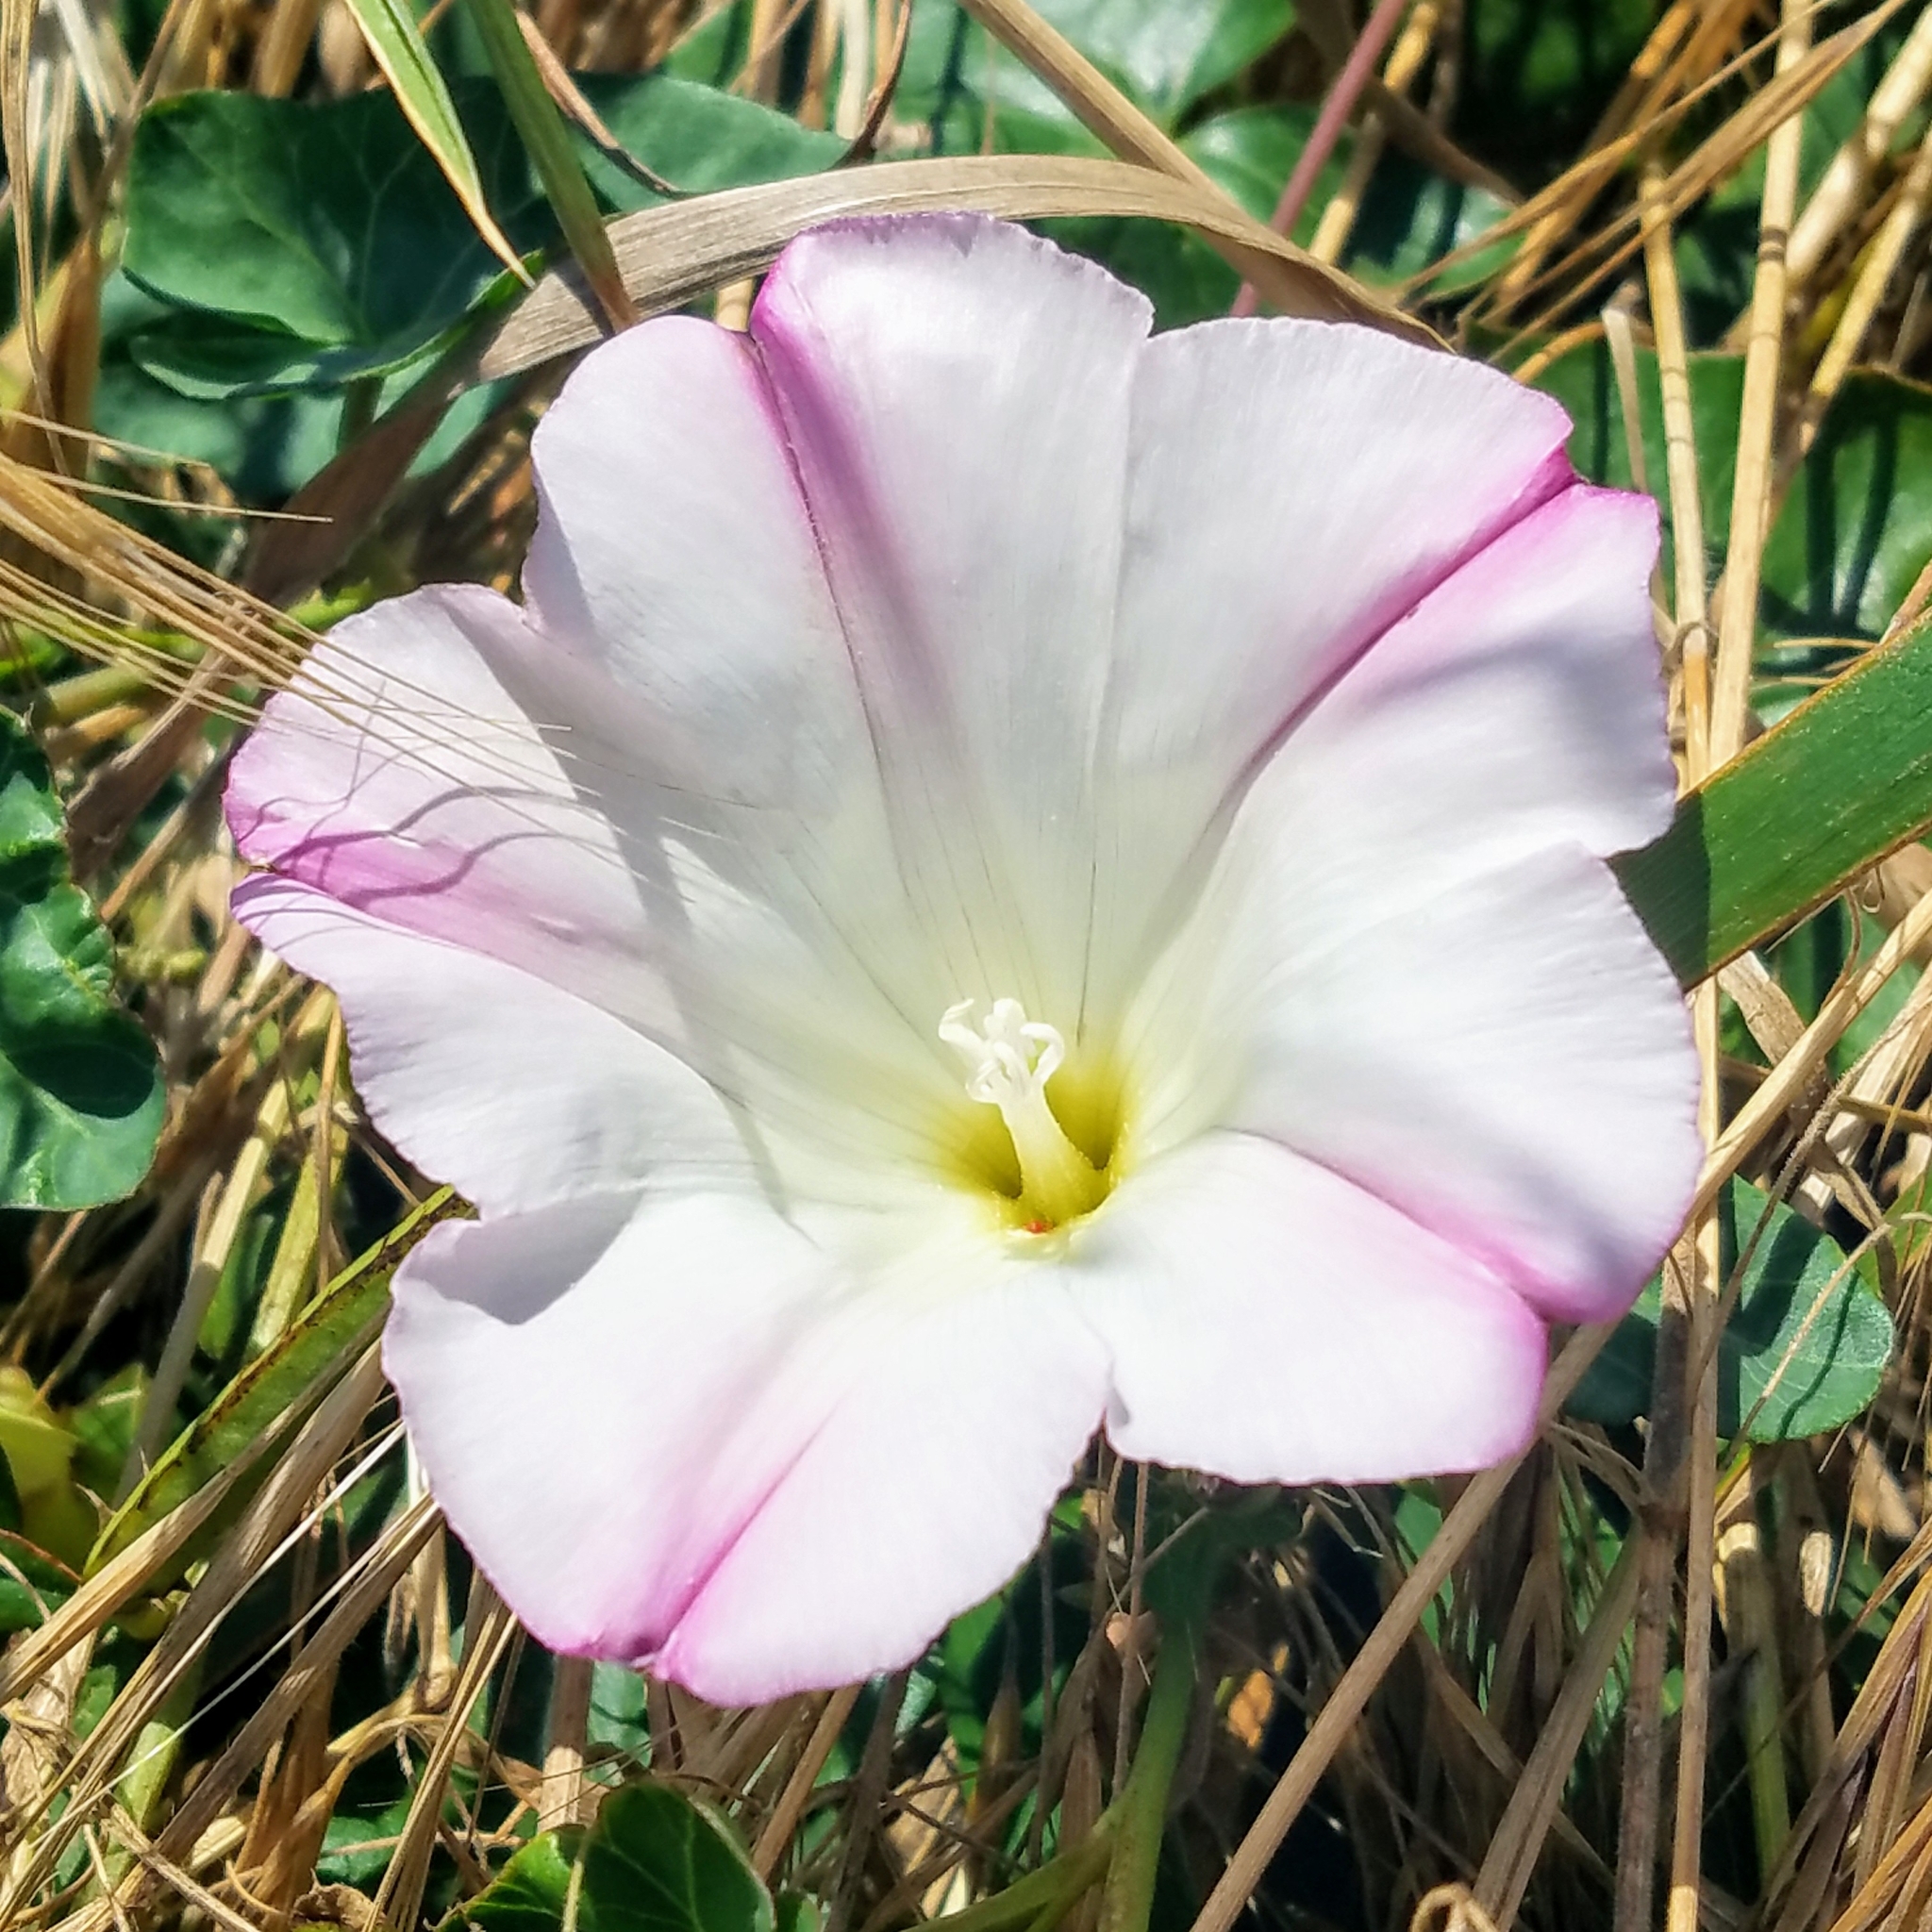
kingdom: Plantae
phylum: Tracheophyta
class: Magnoliopsida
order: Solanales
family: Convolvulaceae
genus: Calystegia
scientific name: Calystegia purpurata
